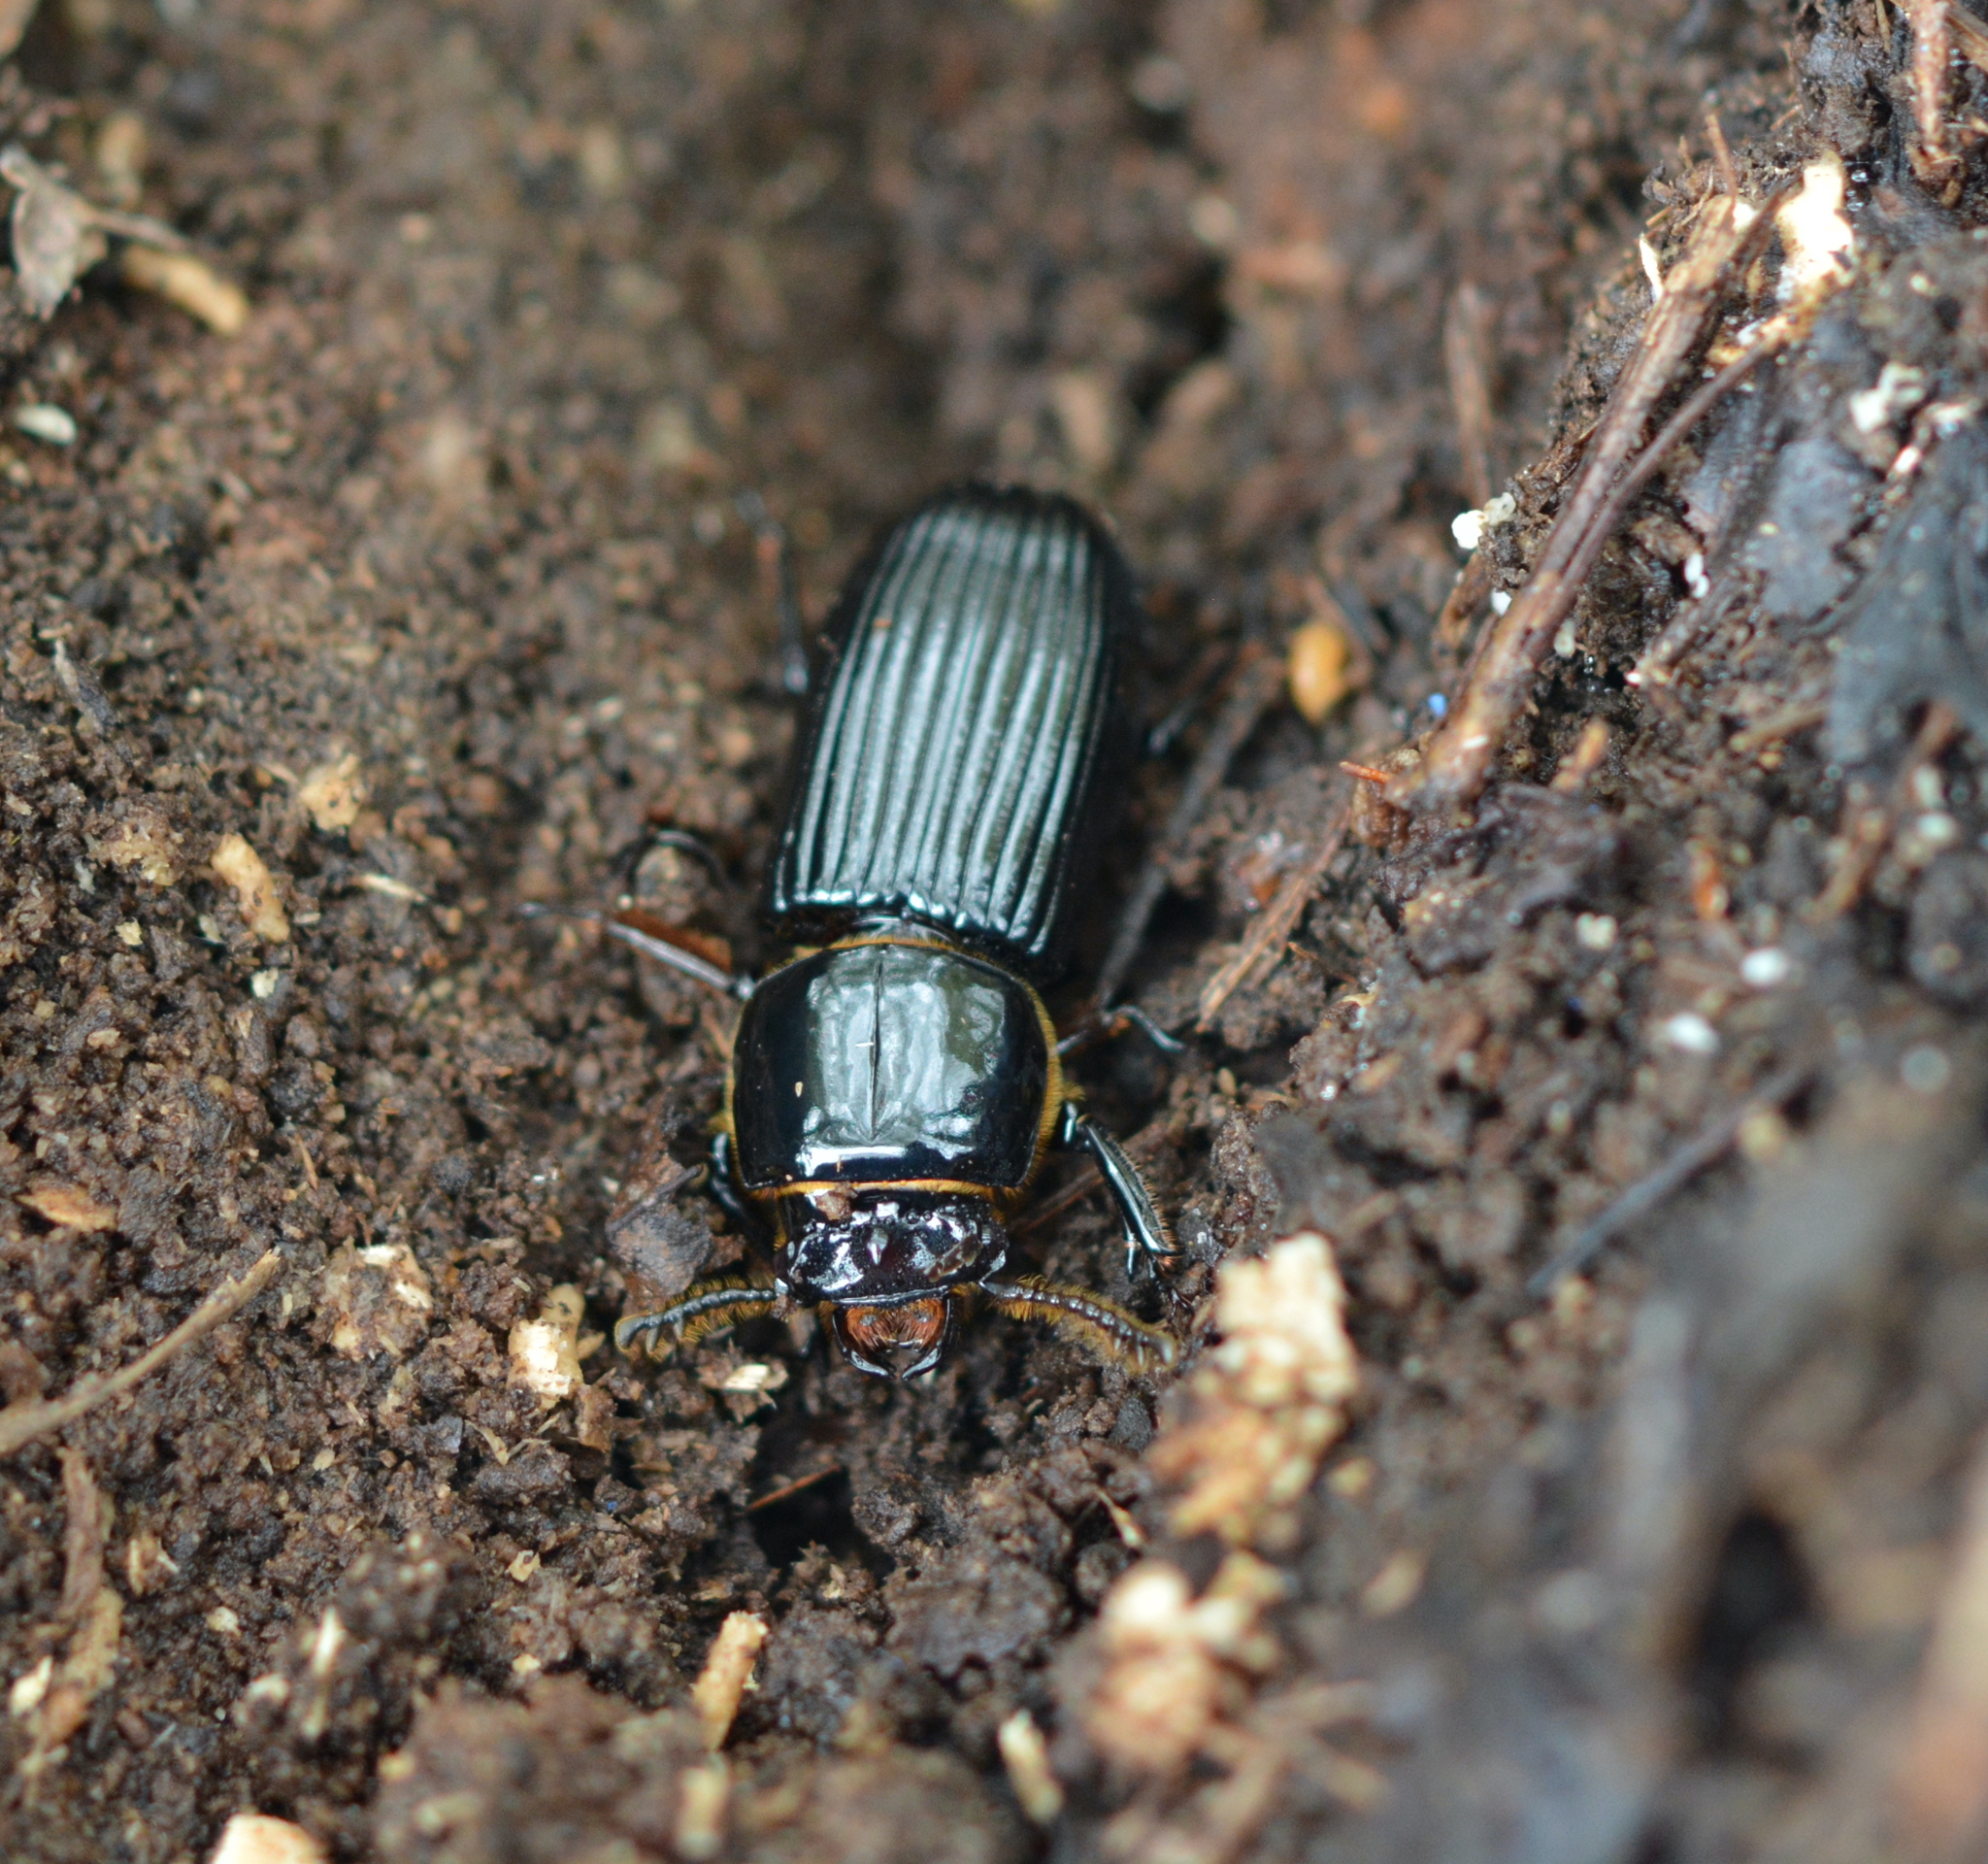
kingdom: Animalia
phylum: Arthropoda
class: Insecta
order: Coleoptera
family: Passalidae
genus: Odontotaenius
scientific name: Odontotaenius disjunctus
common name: Patent leather beetle
